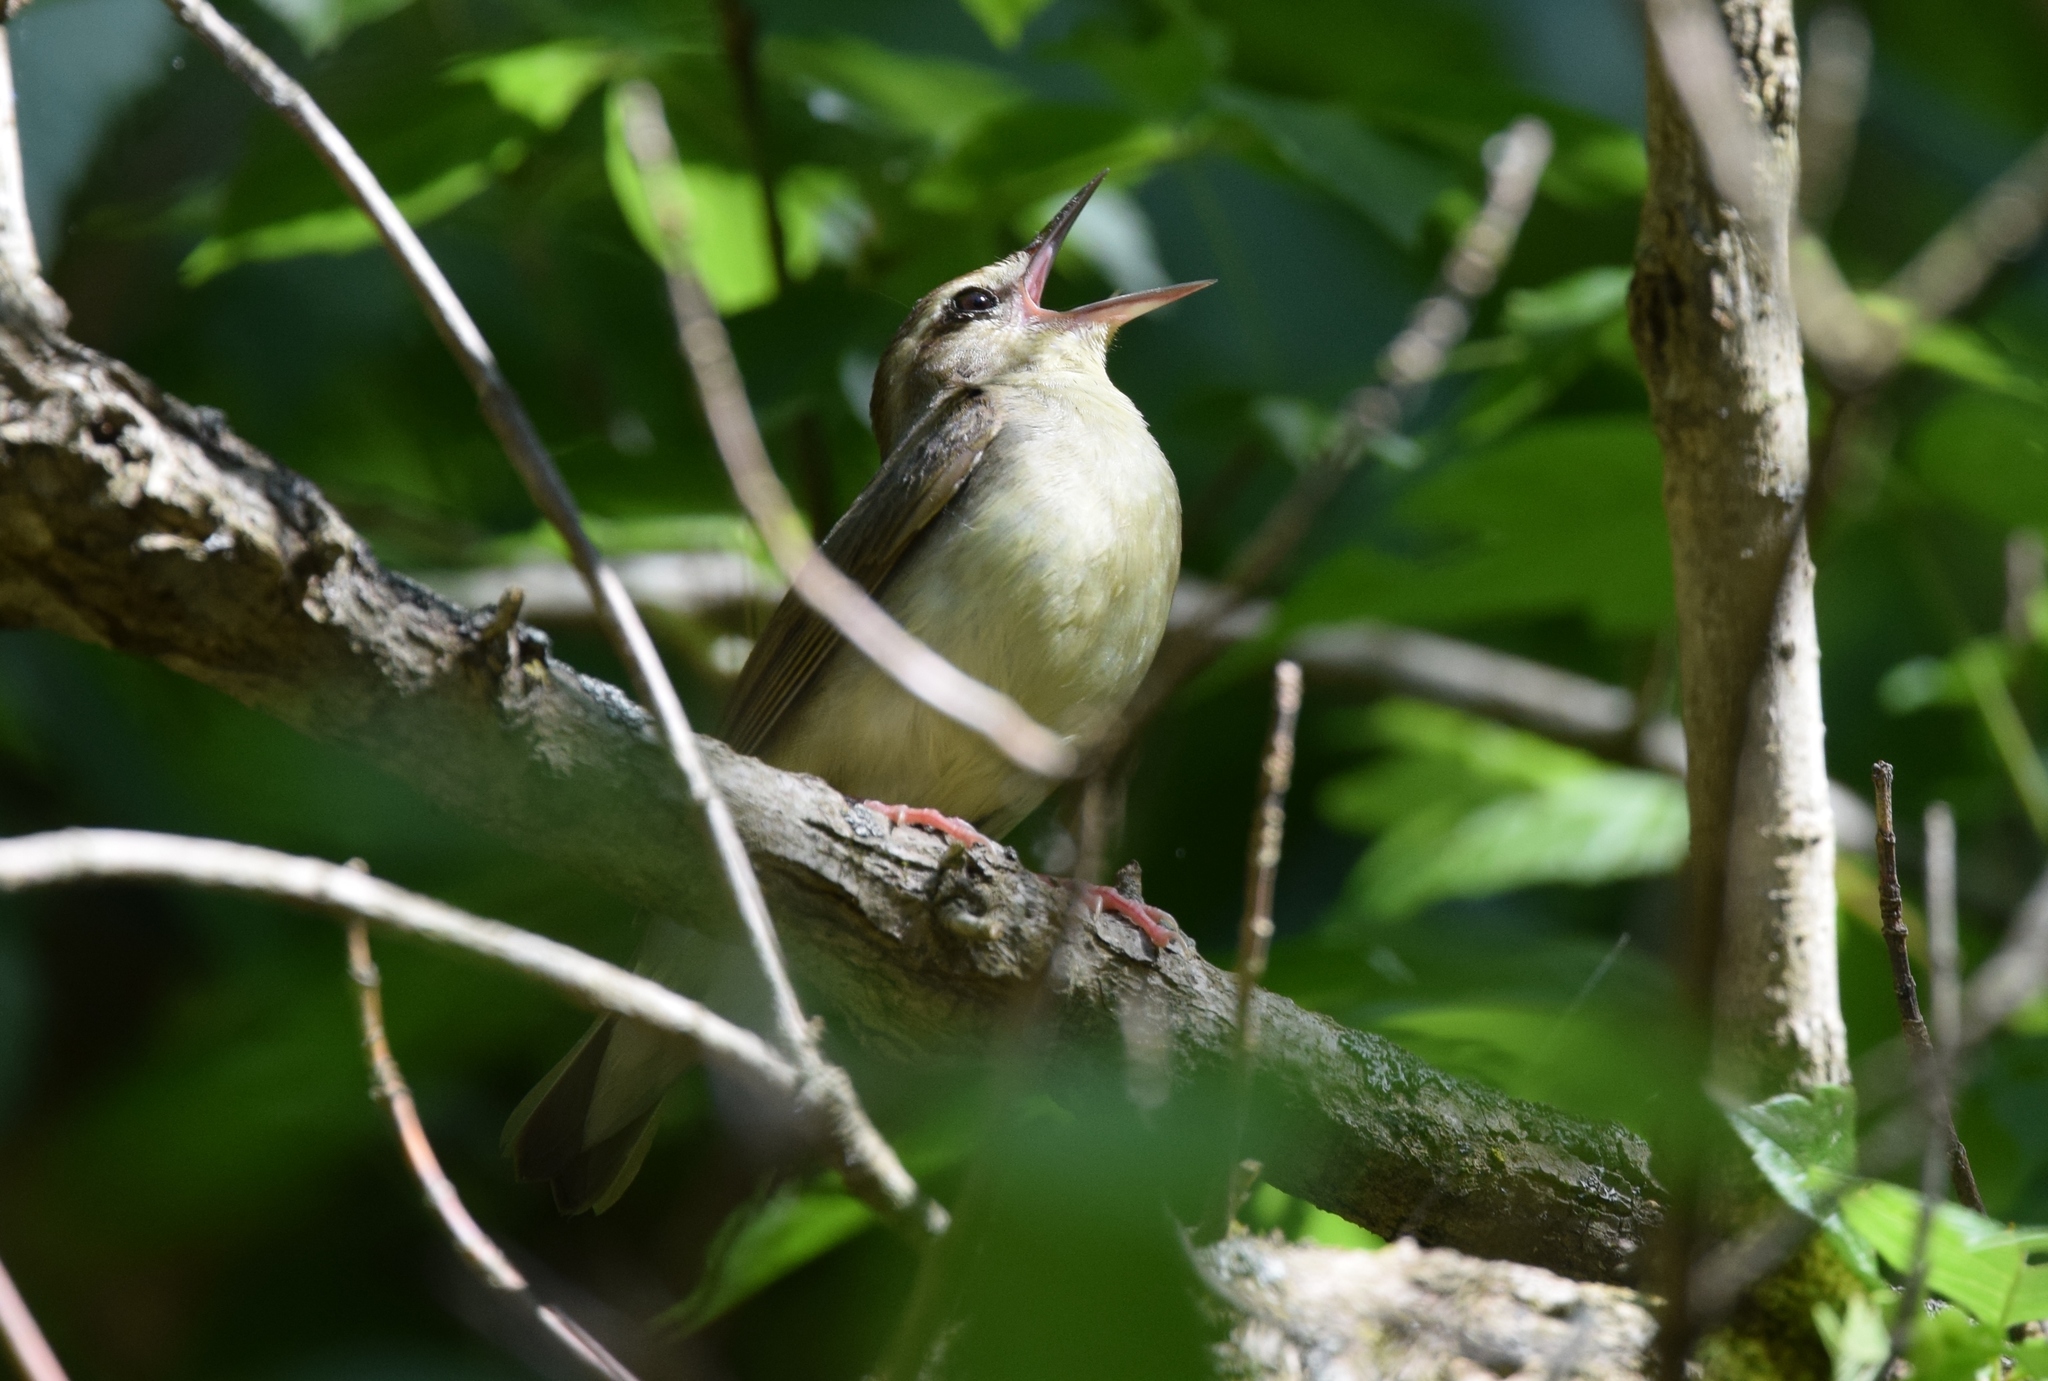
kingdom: Animalia
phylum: Chordata
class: Aves
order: Passeriformes
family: Parulidae
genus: Limnothlypis
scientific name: Limnothlypis swainsonii
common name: Swainson's warbler
